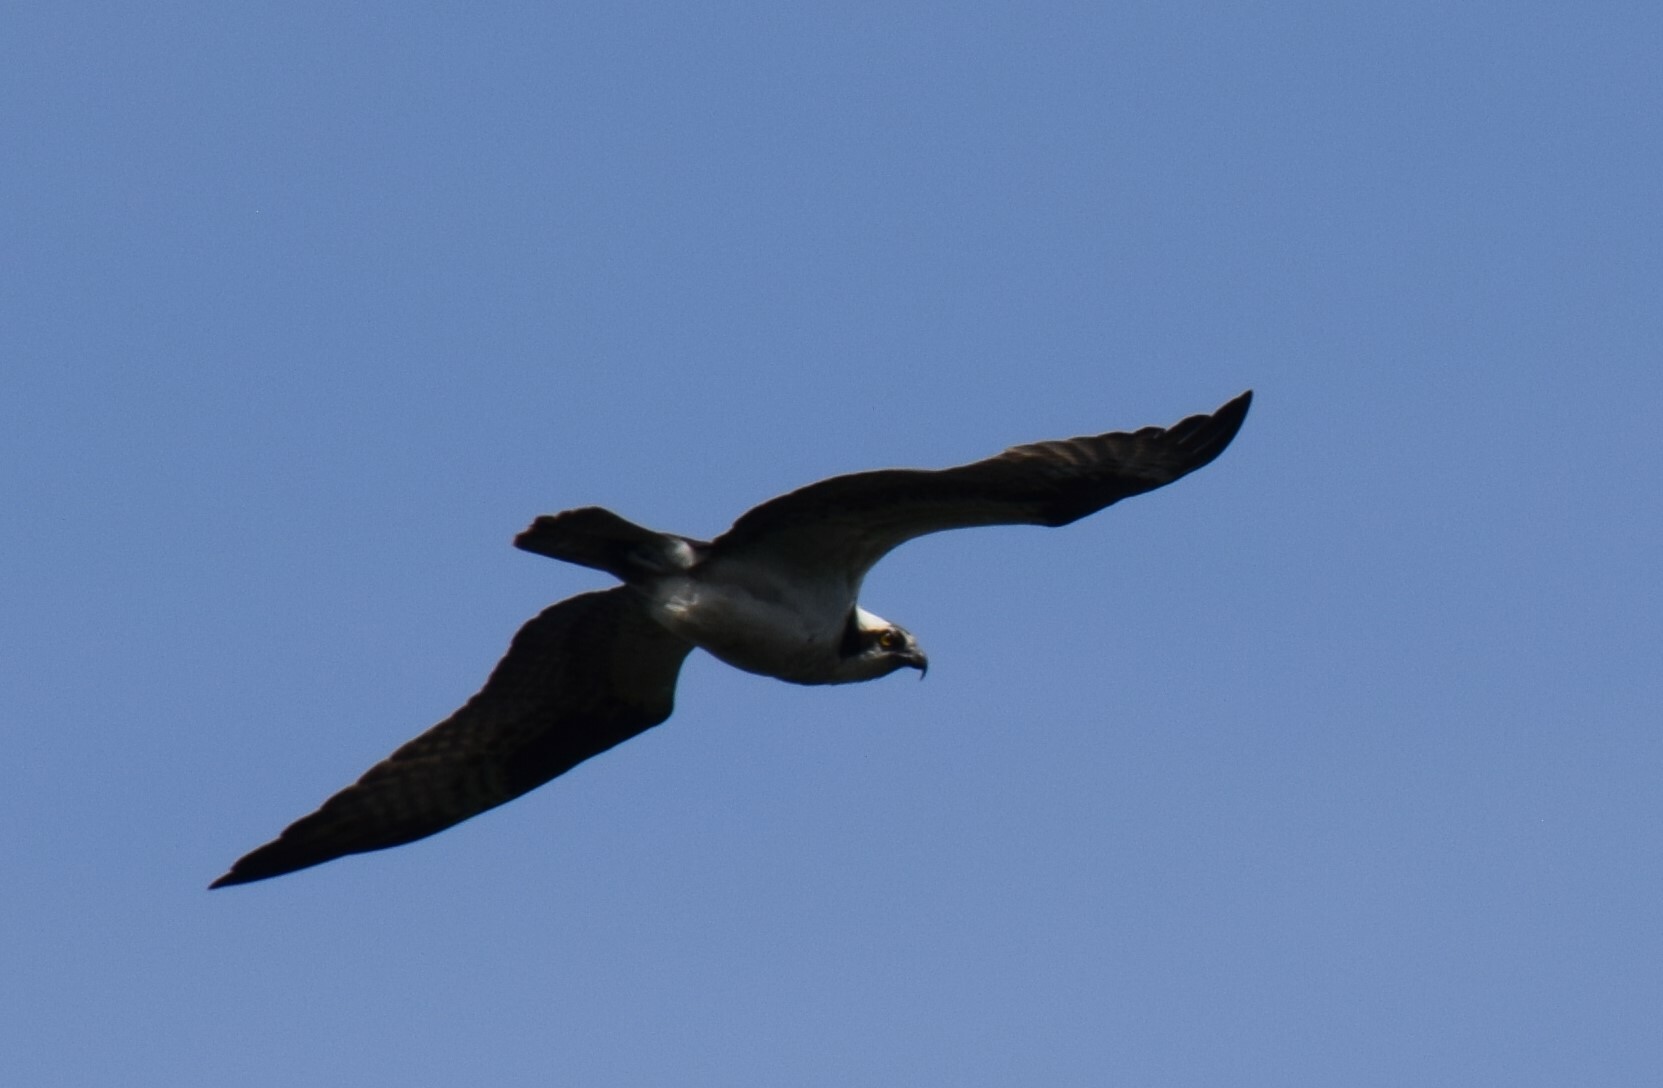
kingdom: Animalia
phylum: Chordata
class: Aves
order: Accipitriformes
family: Pandionidae
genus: Pandion
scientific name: Pandion haliaetus
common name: Osprey
